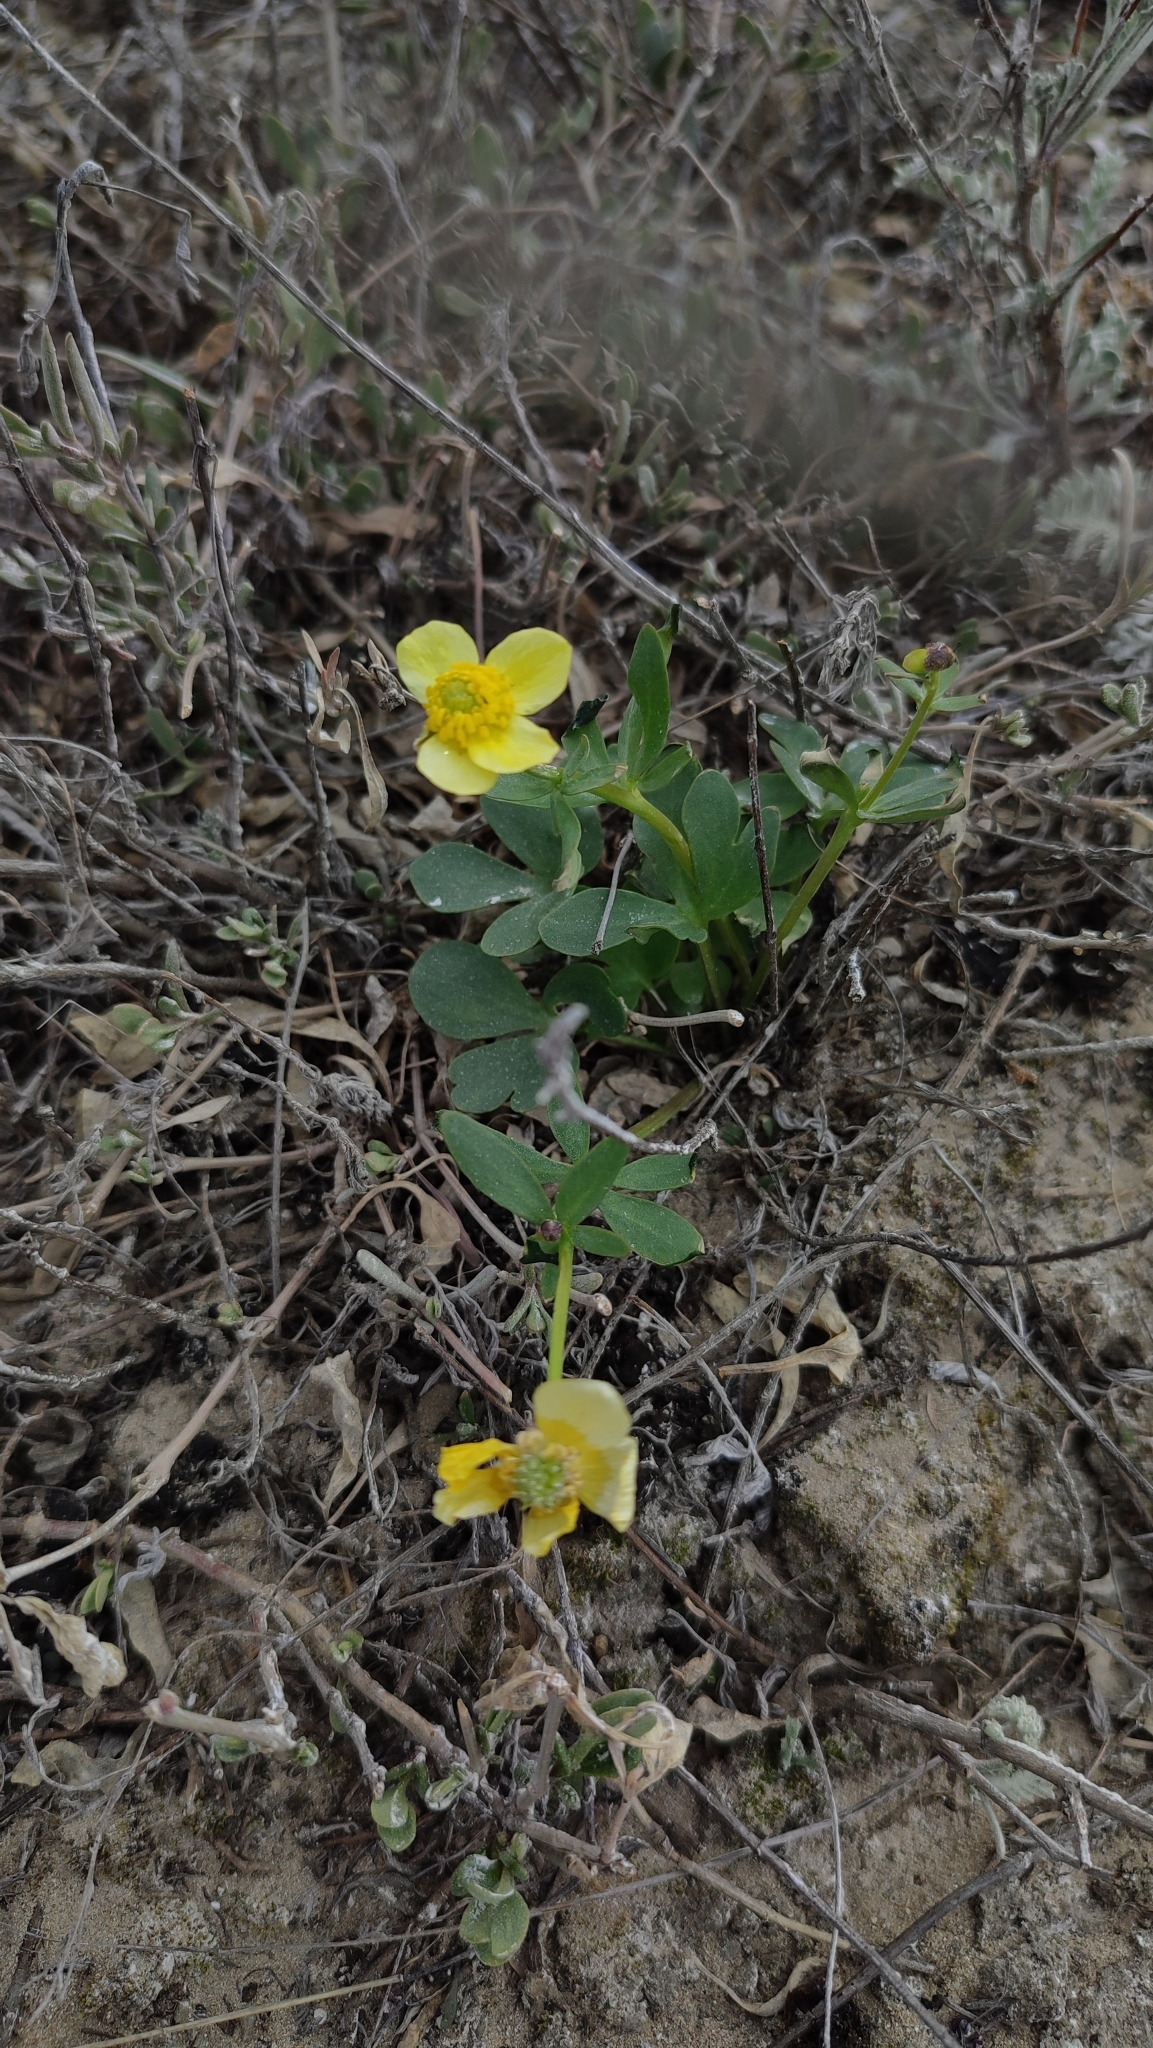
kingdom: Plantae
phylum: Tracheophyta
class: Magnoliopsida
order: Ranunculales
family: Ranunculaceae
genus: Ranunculus
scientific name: Ranunculus polyrhizos
